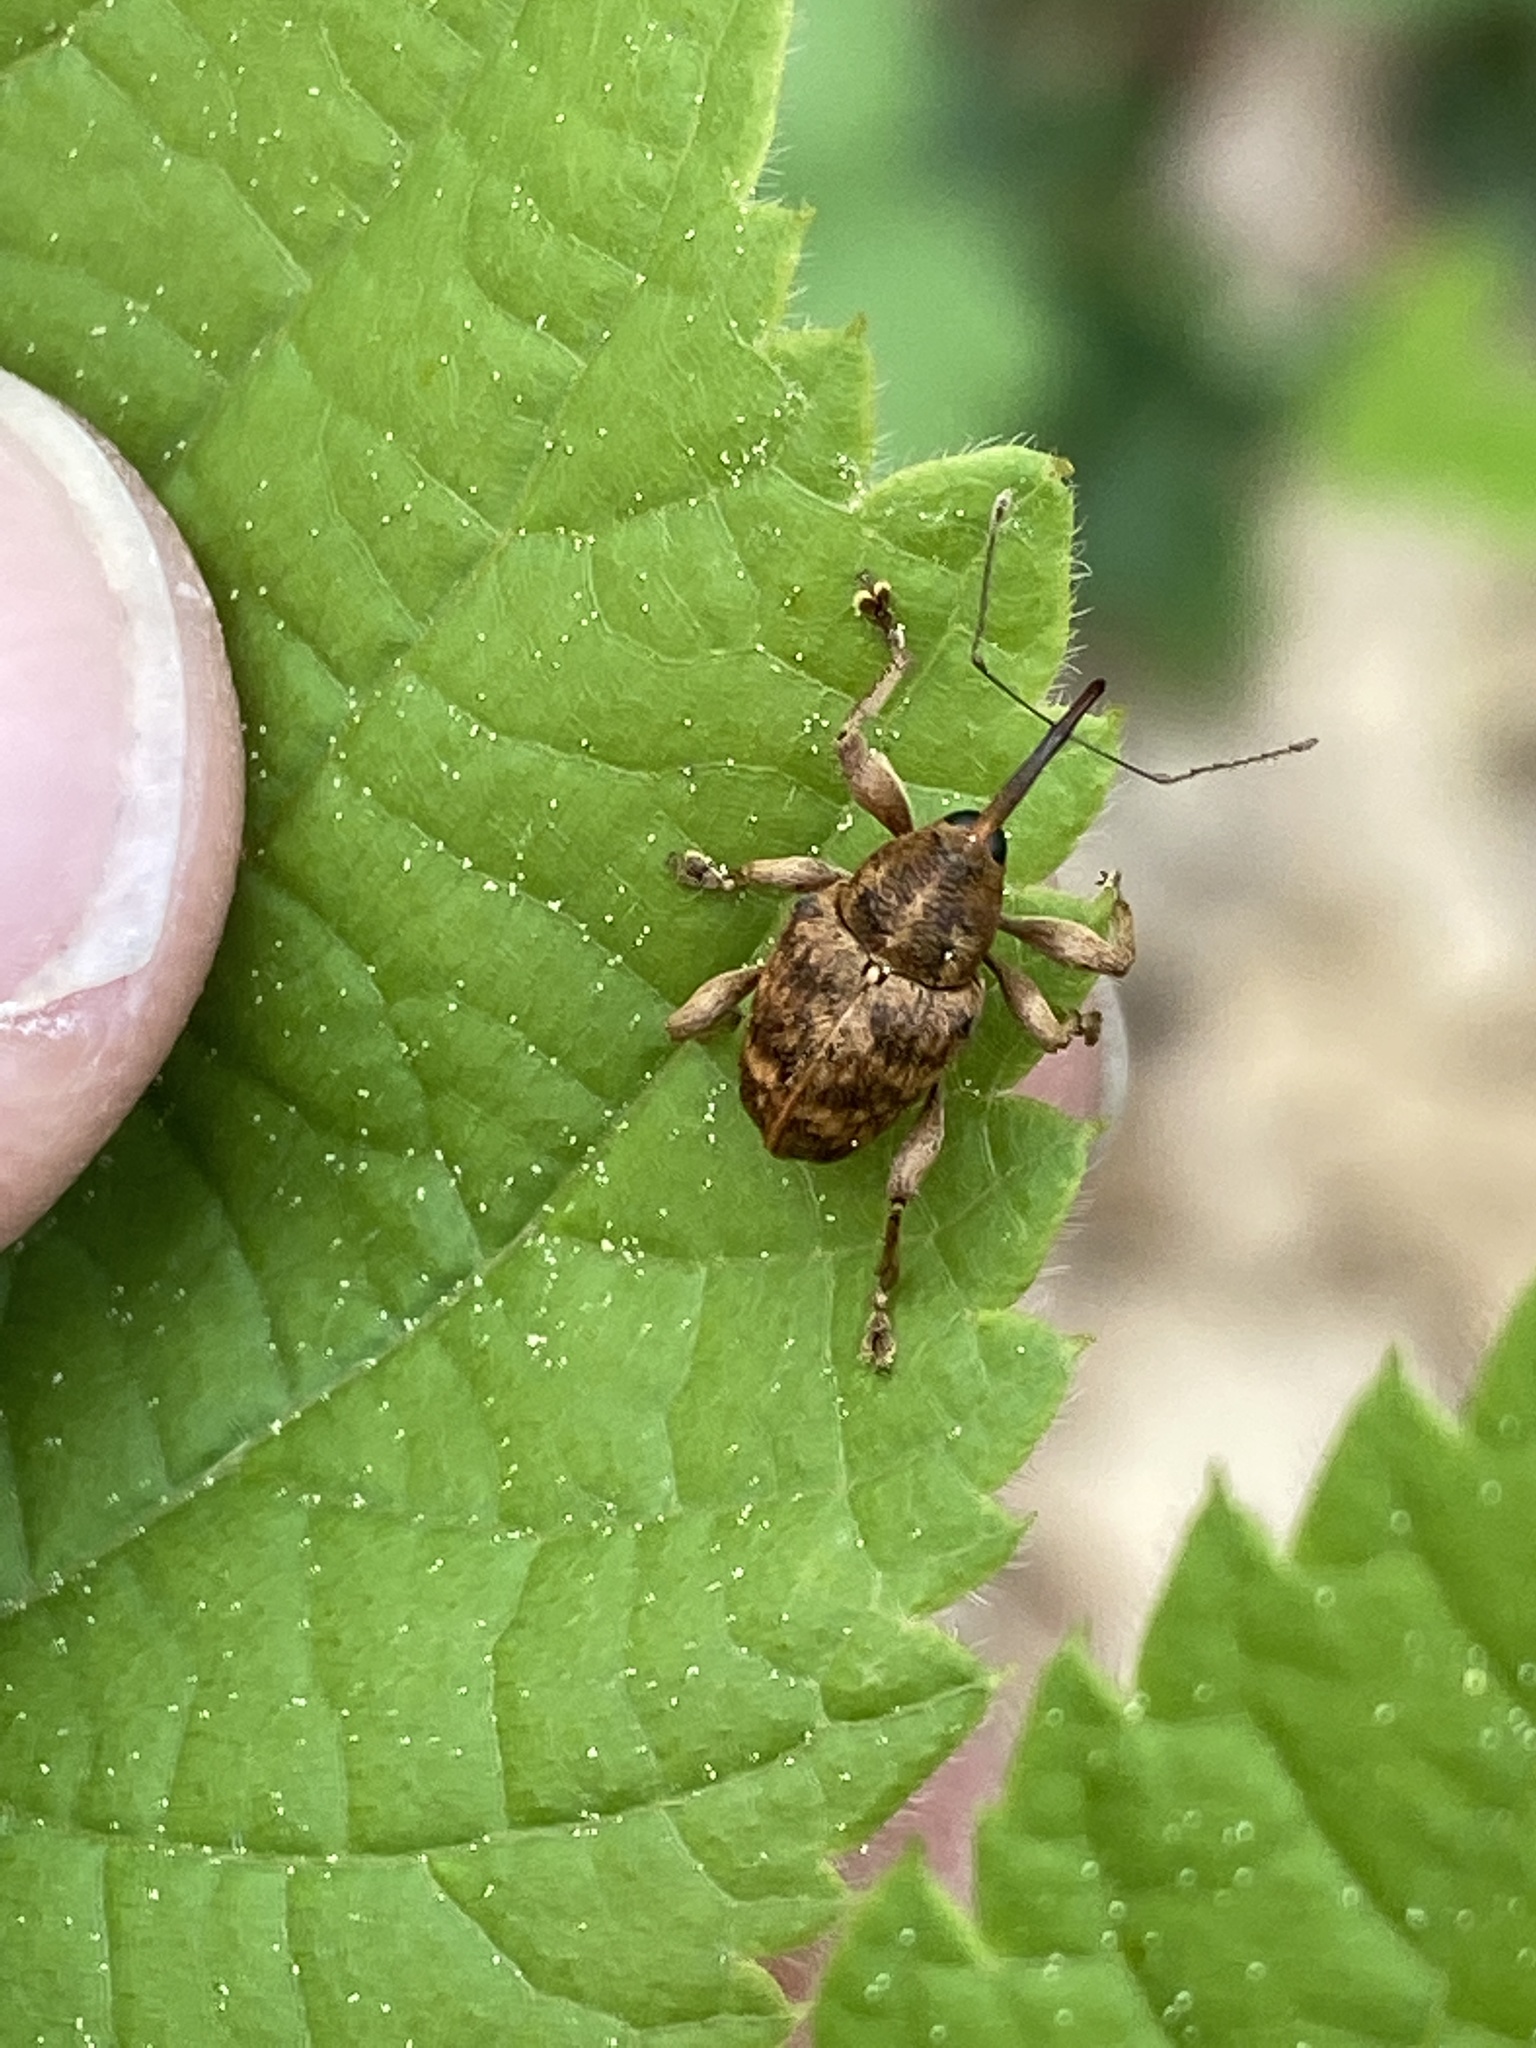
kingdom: Animalia
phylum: Arthropoda
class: Insecta
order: Coleoptera
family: Curculionidae
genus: Curculio
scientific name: Curculio venosus
